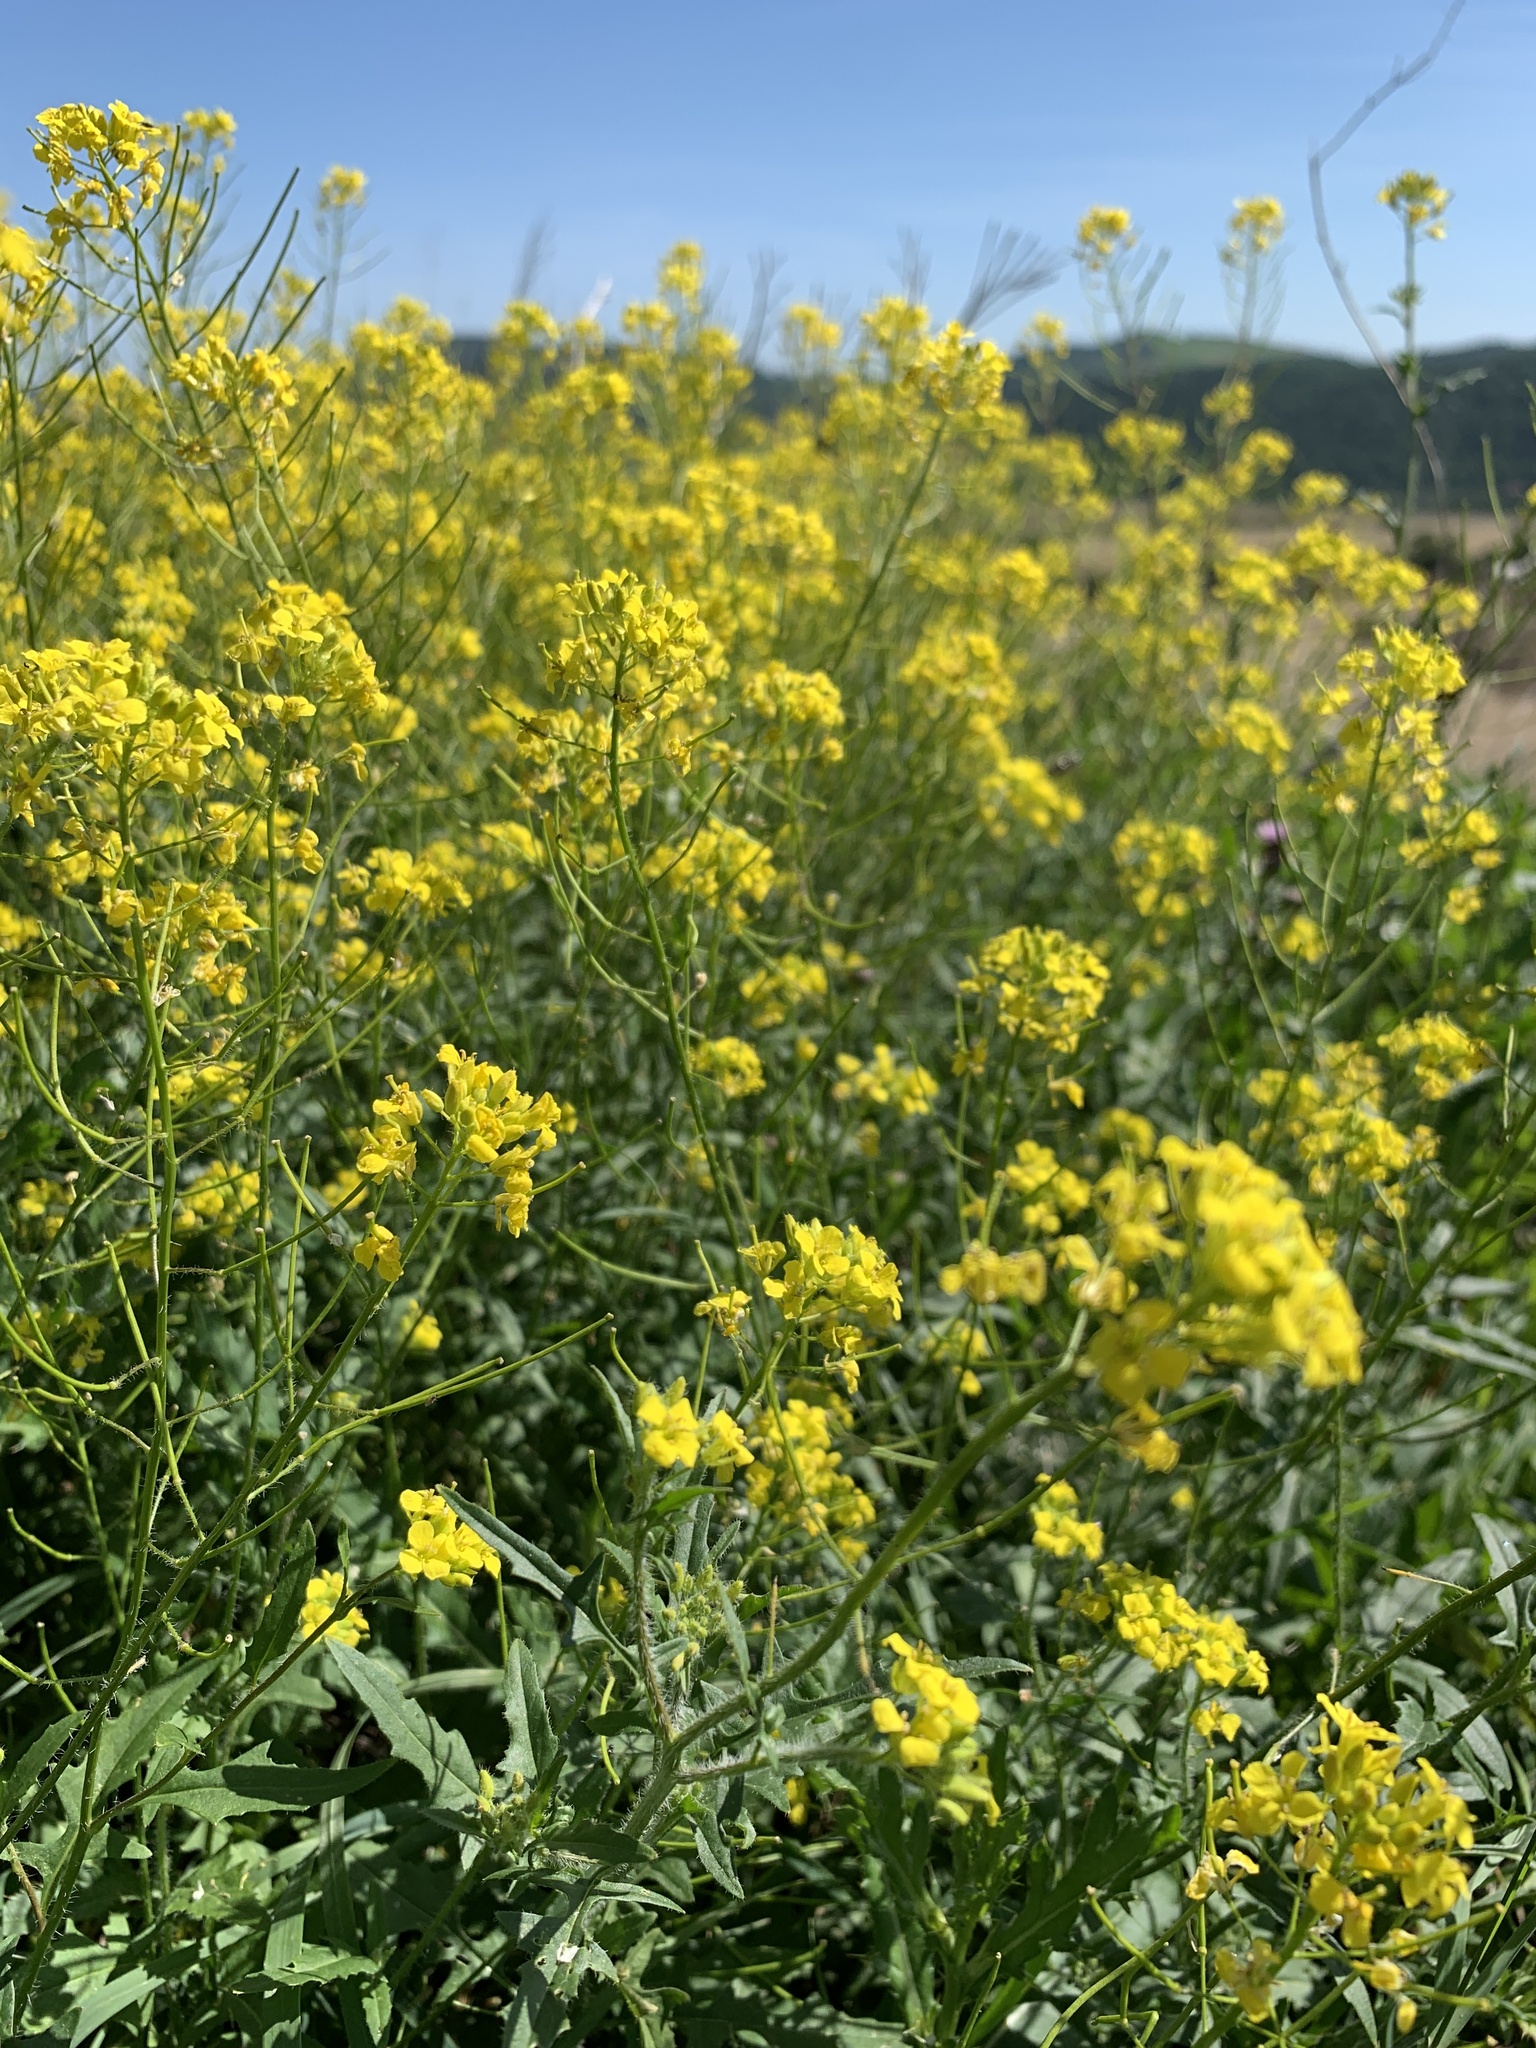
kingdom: Plantae
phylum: Tracheophyta
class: Magnoliopsida
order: Brassicales
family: Brassicaceae
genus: Sisymbrium
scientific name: Sisymbrium loeselii
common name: False london-rocket
